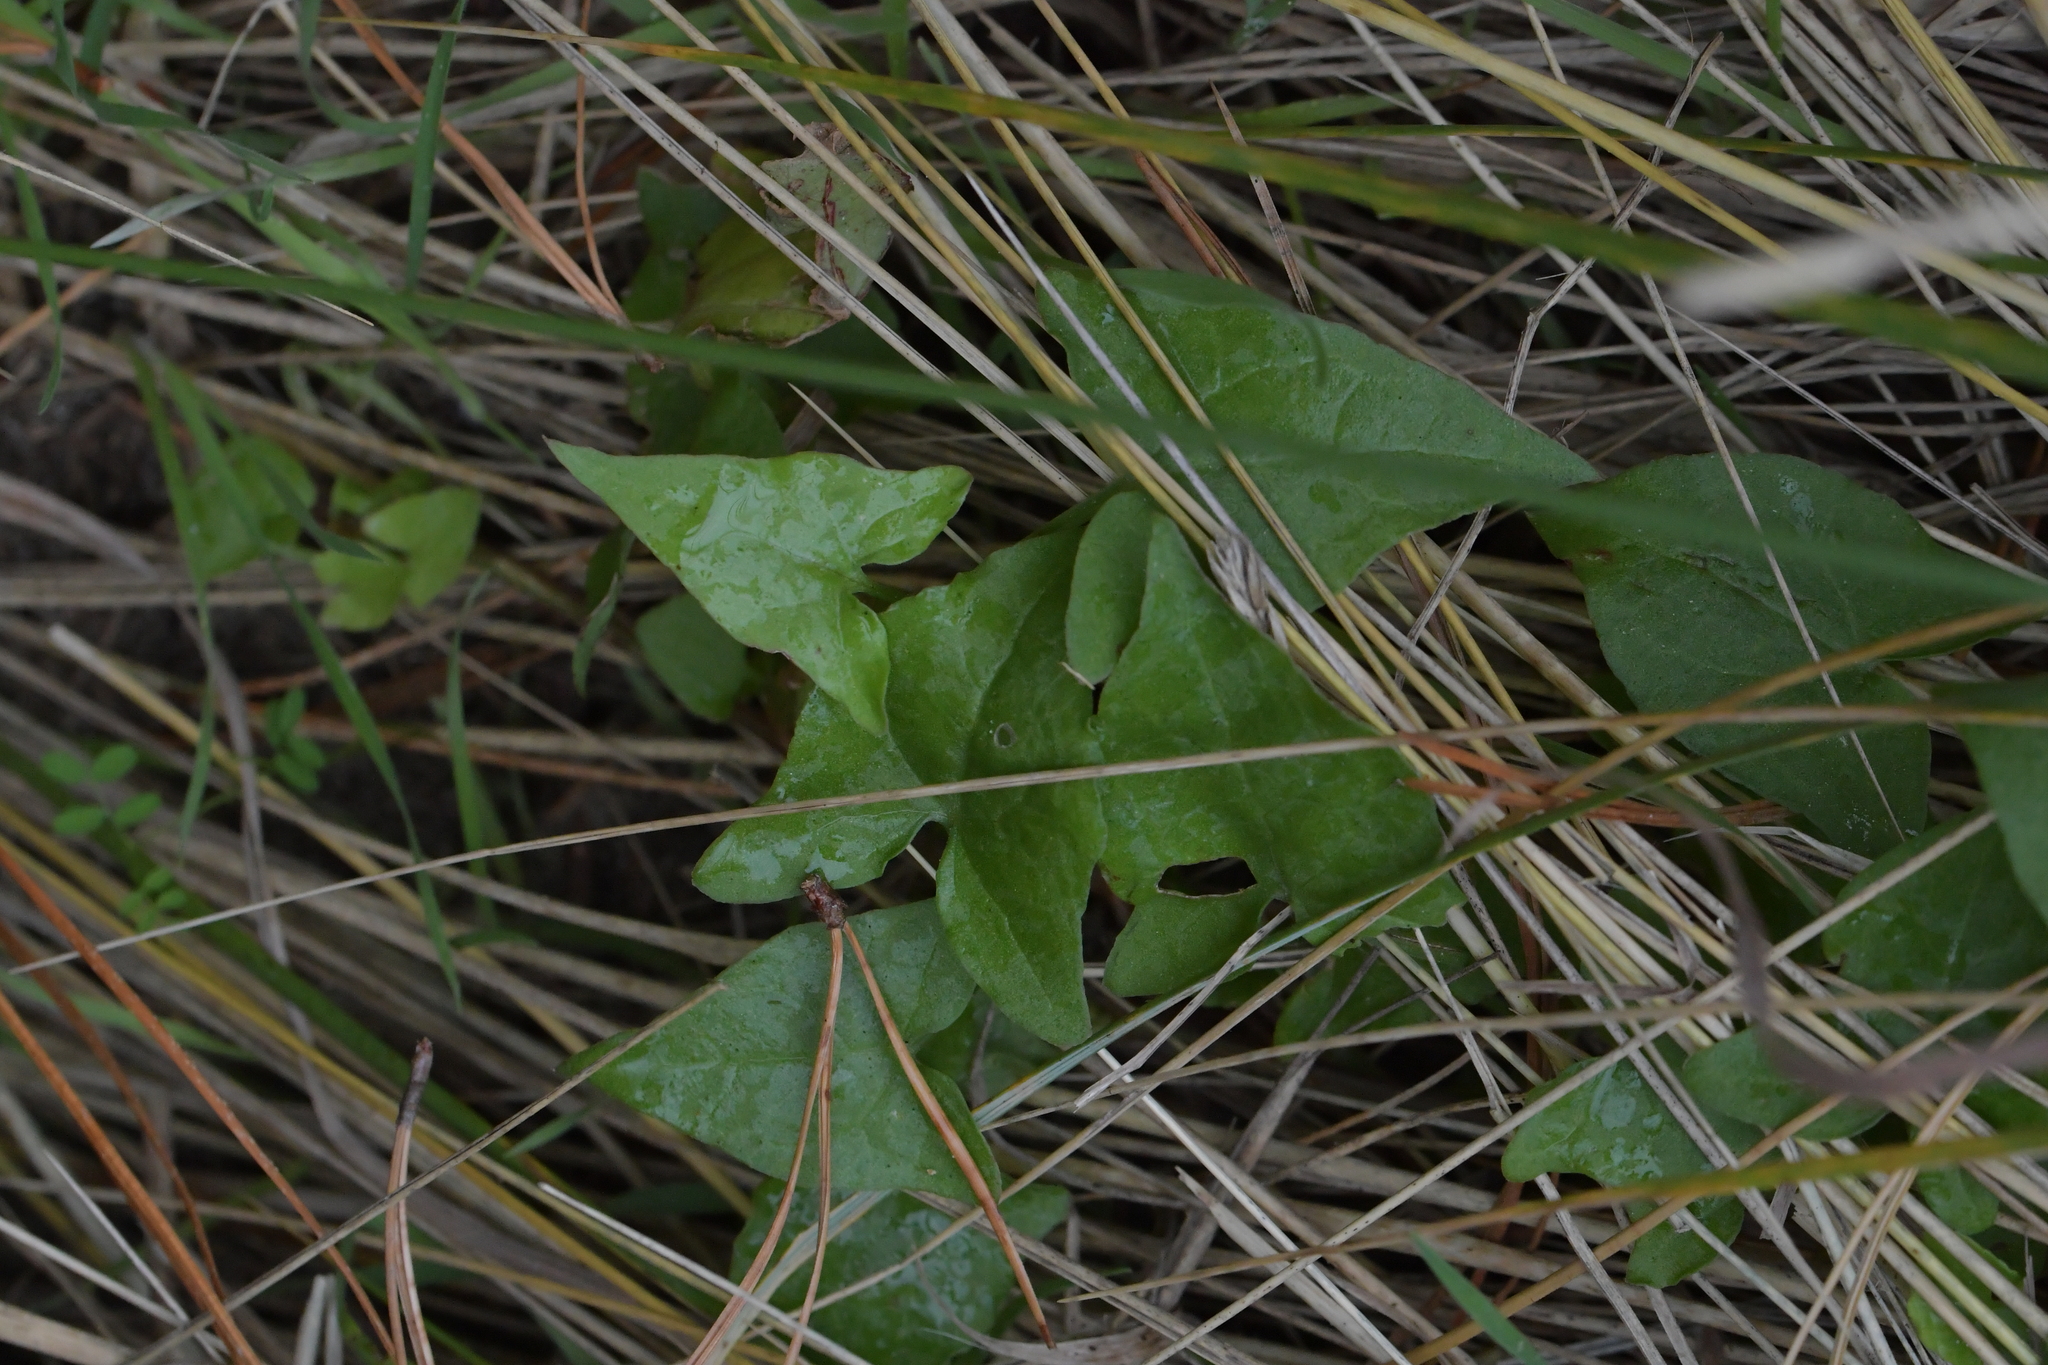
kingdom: Plantae
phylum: Tracheophyta
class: Magnoliopsida
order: Solanales
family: Convolvulaceae
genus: Calystegia
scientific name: Calystegia silvatica
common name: Large bindweed
